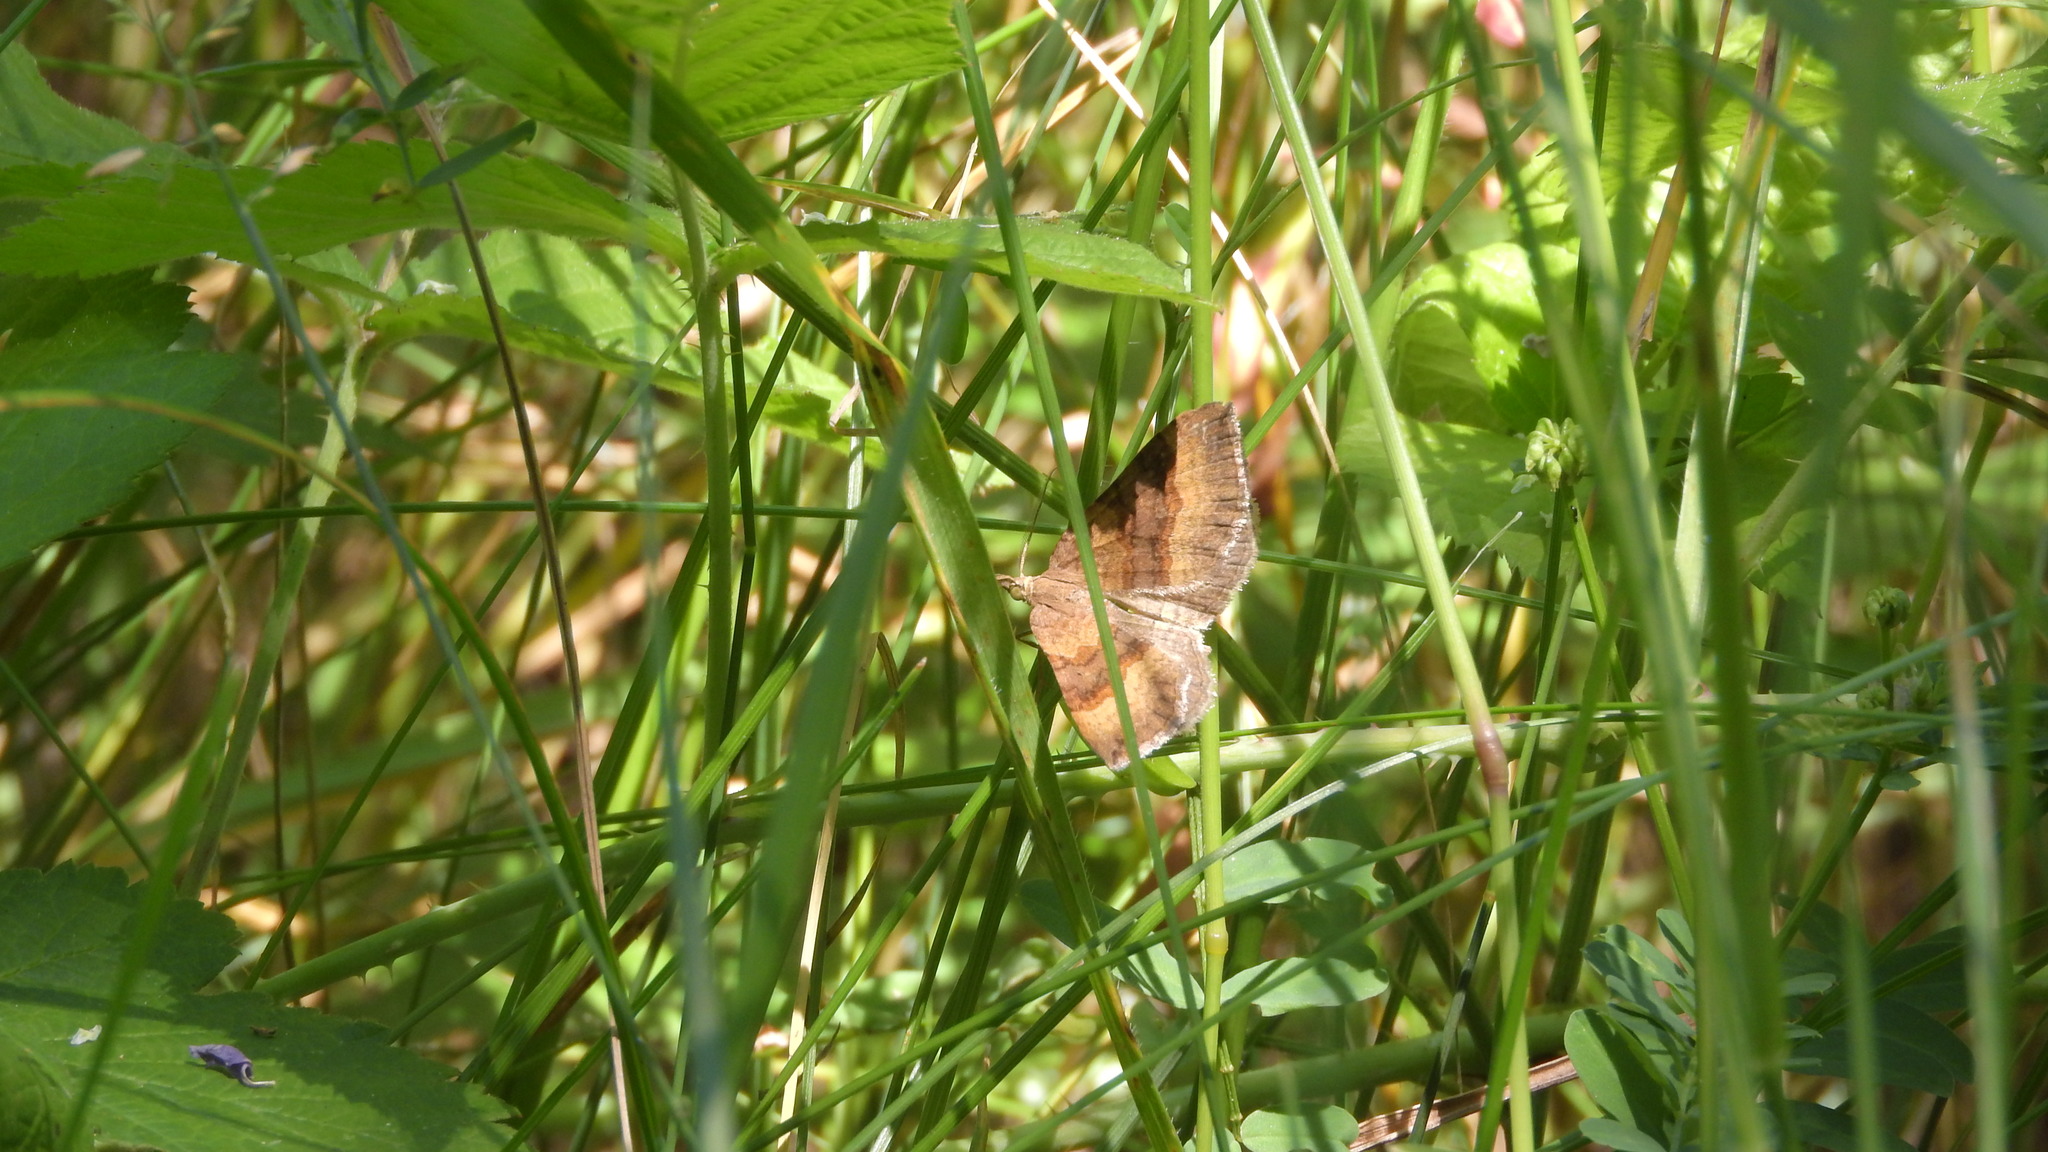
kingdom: Animalia
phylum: Arthropoda
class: Insecta
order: Lepidoptera
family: Geometridae
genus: Scotopteryx
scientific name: Scotopteryx chenopodiata
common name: Shaded broad-bar
